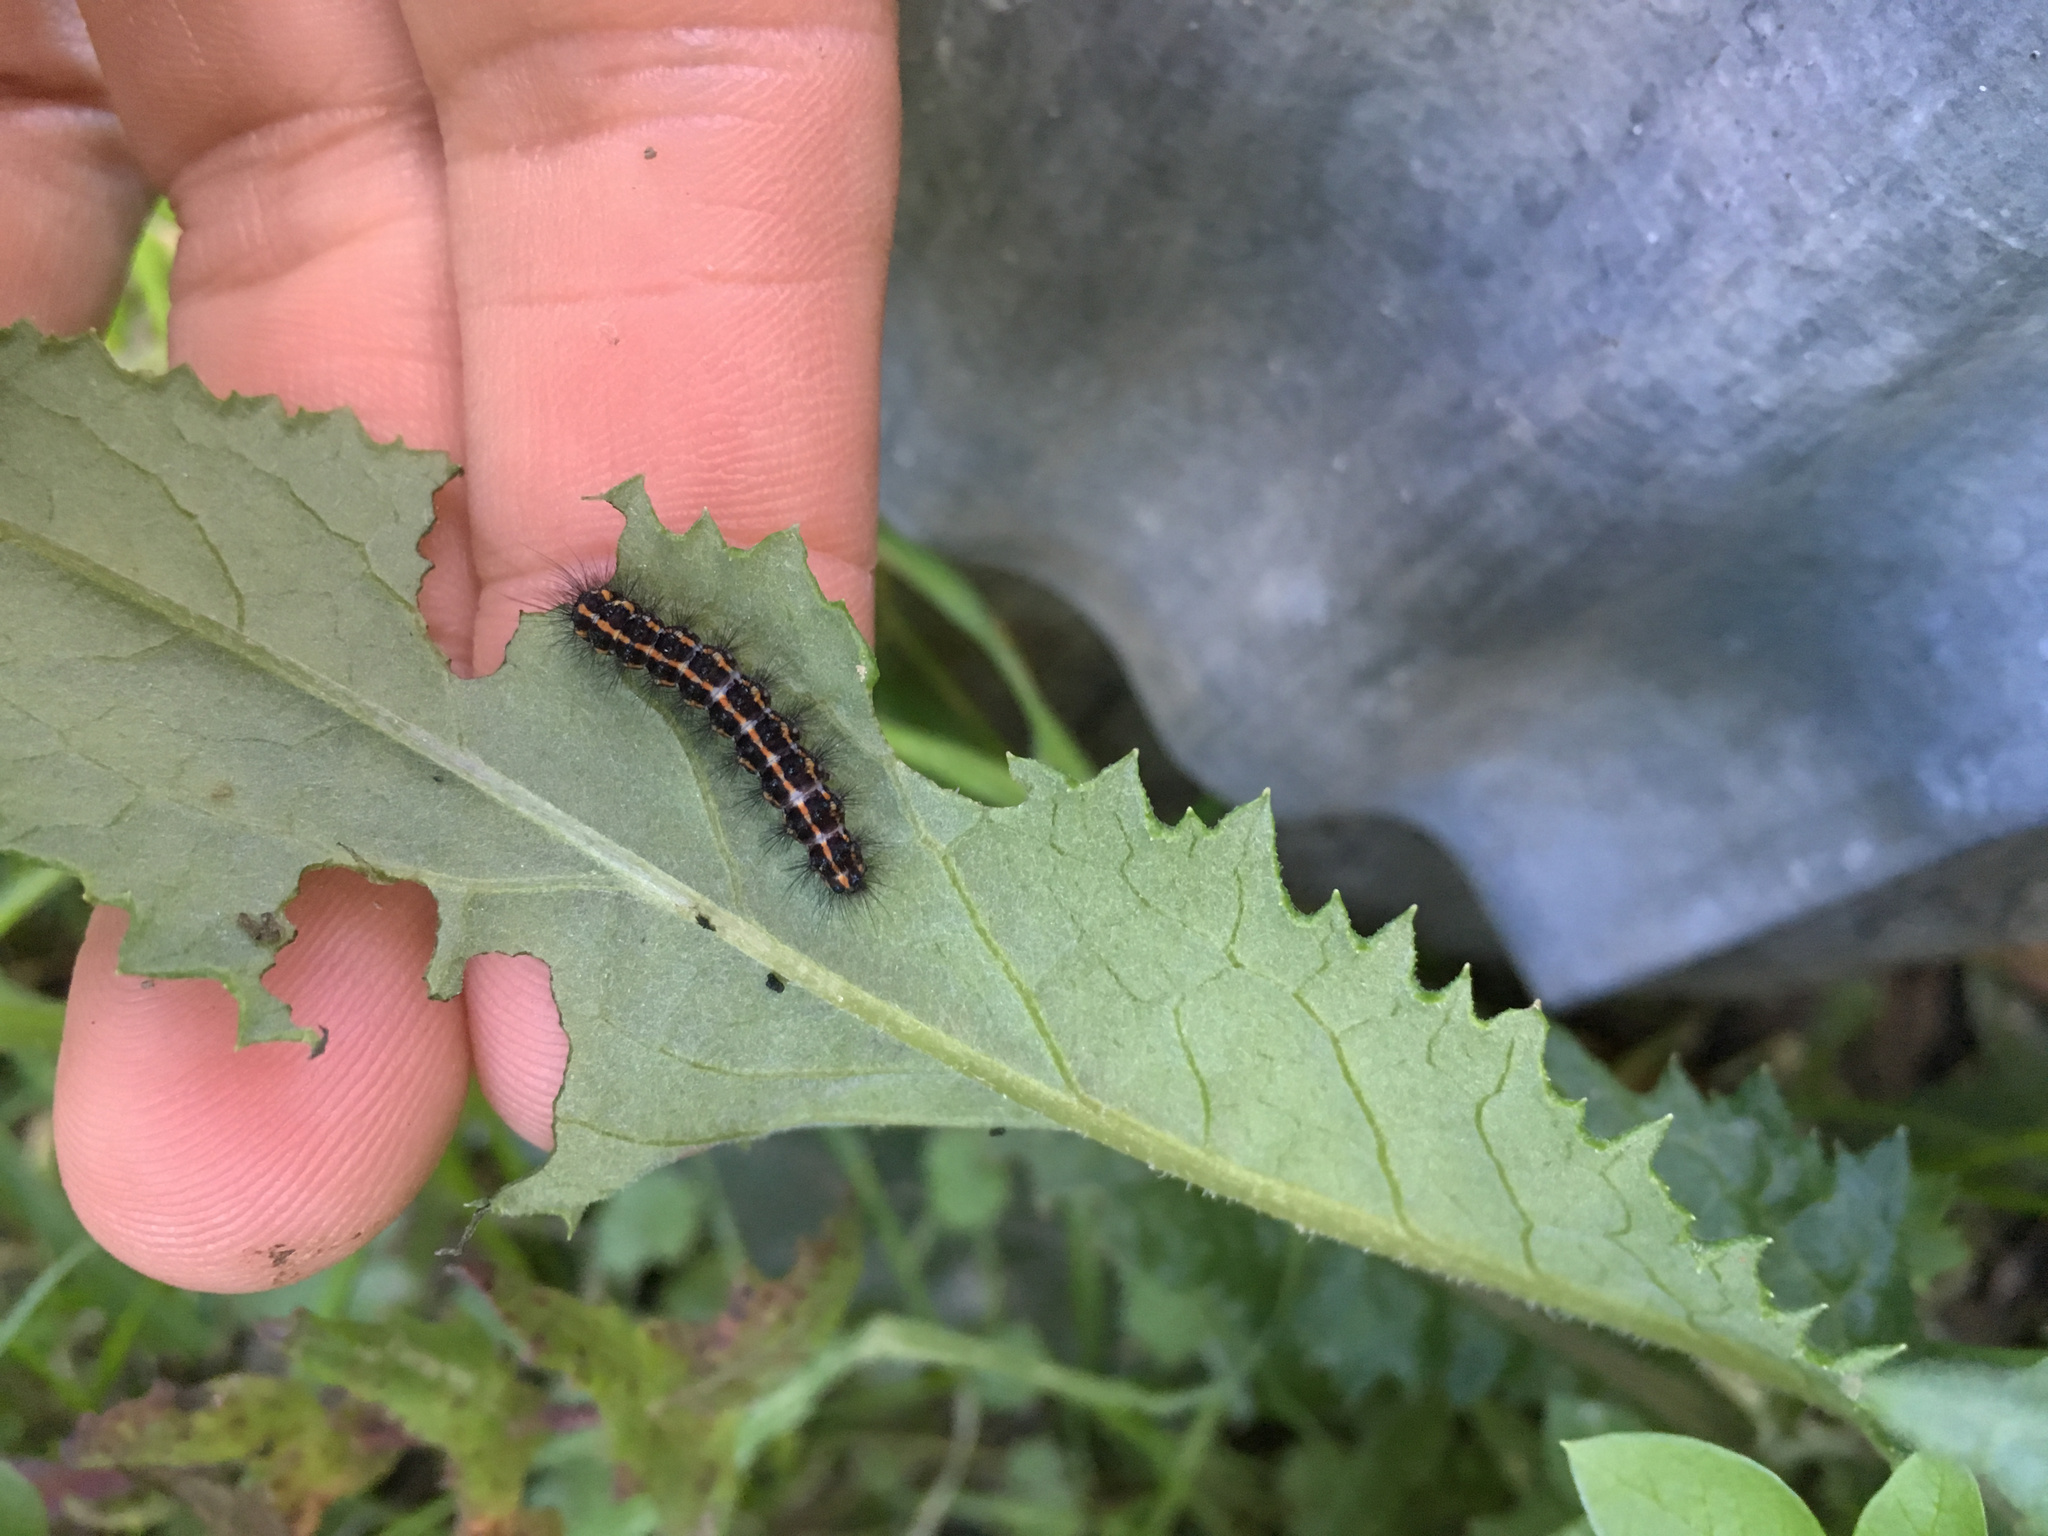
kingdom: Animalia
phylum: Arthropoda
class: Insecta
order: Lepidoptera
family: Erebidae
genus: Nyctemera
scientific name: Nyctemera annulatum
